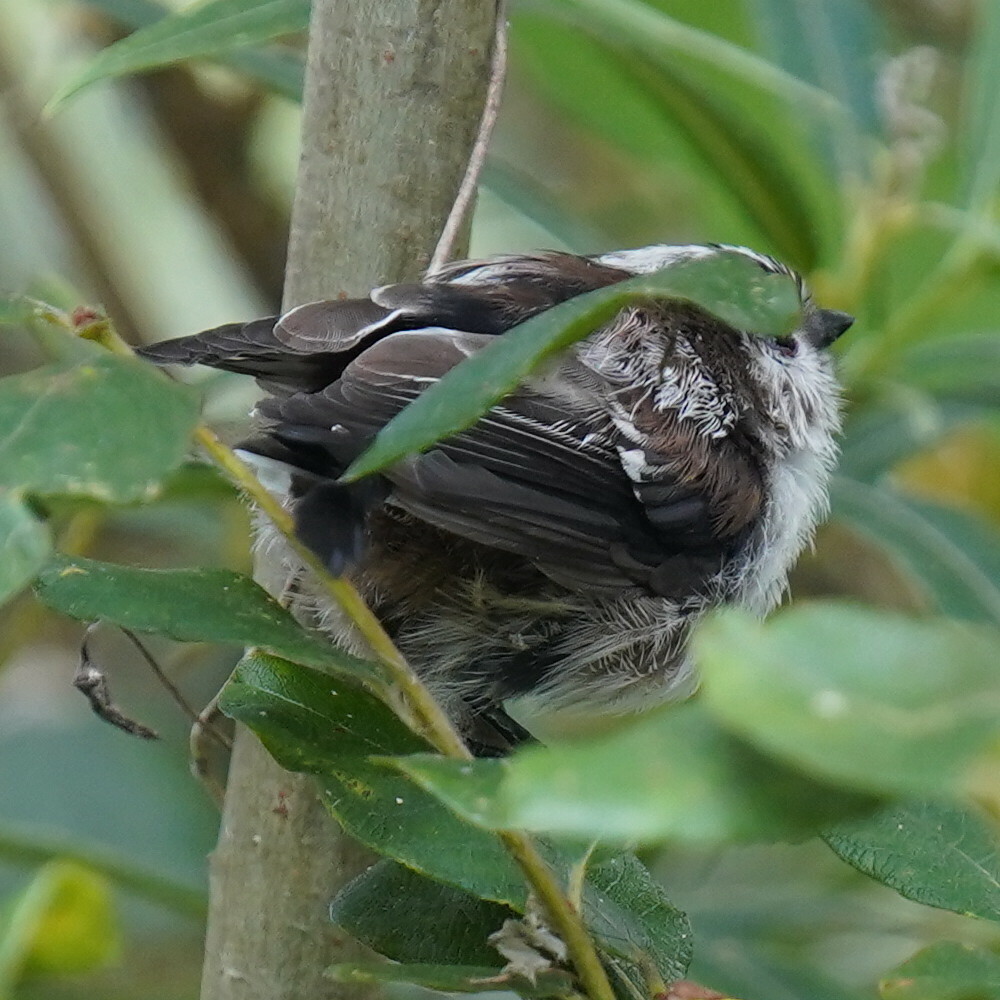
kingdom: Animalia
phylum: Chordata
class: Aves
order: Passeriformes
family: Aegithalidae
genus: Aegithalos
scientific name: Aegithalos caudatus
